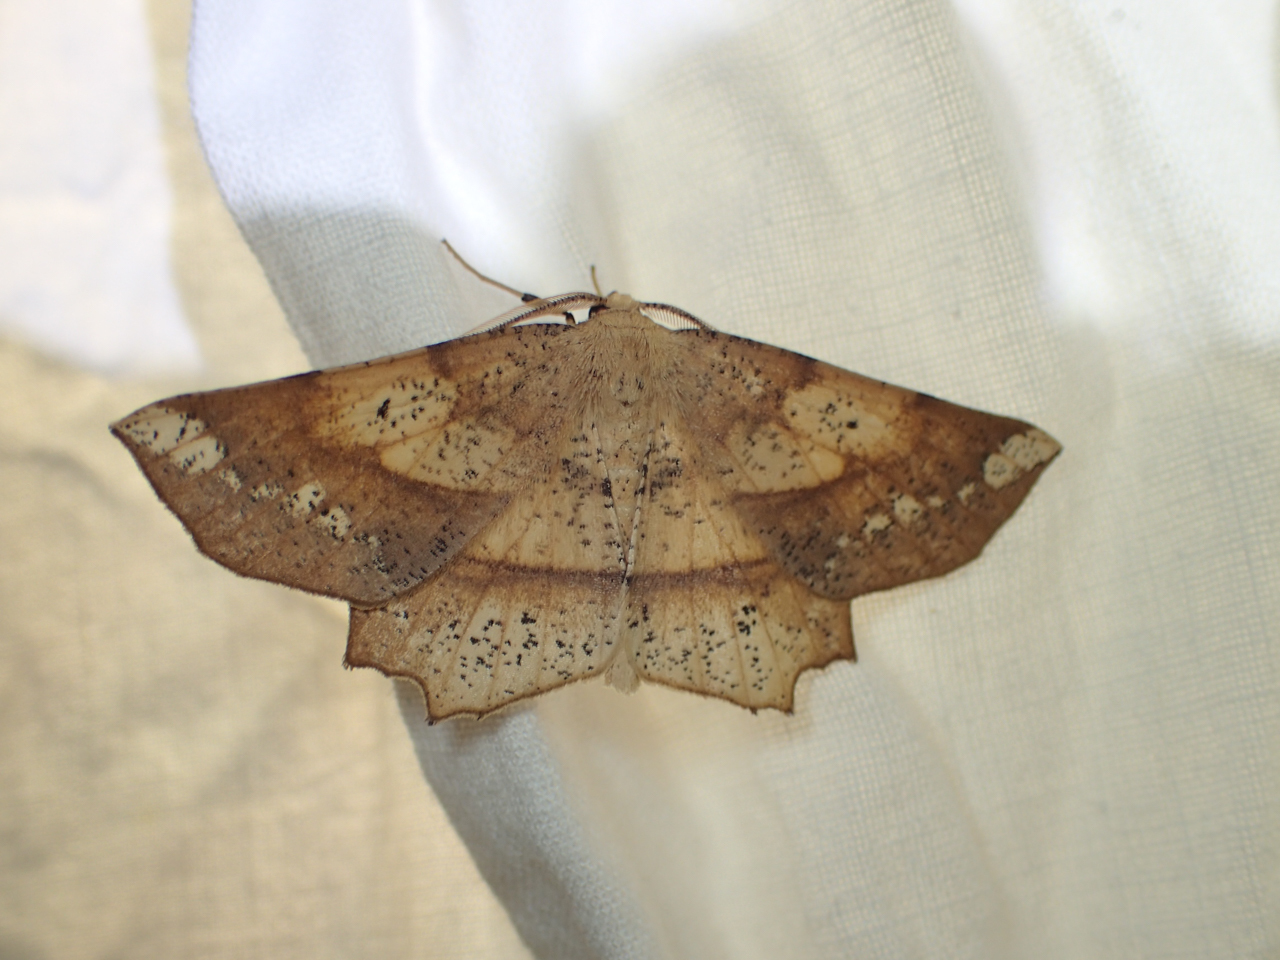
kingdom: Animalia
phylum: Arthropoda
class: Insecta
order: Lepidoptera
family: Geometridae
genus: Euchlaena
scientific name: Euchlaena amoenaria
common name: Deep yellow euchlaena
